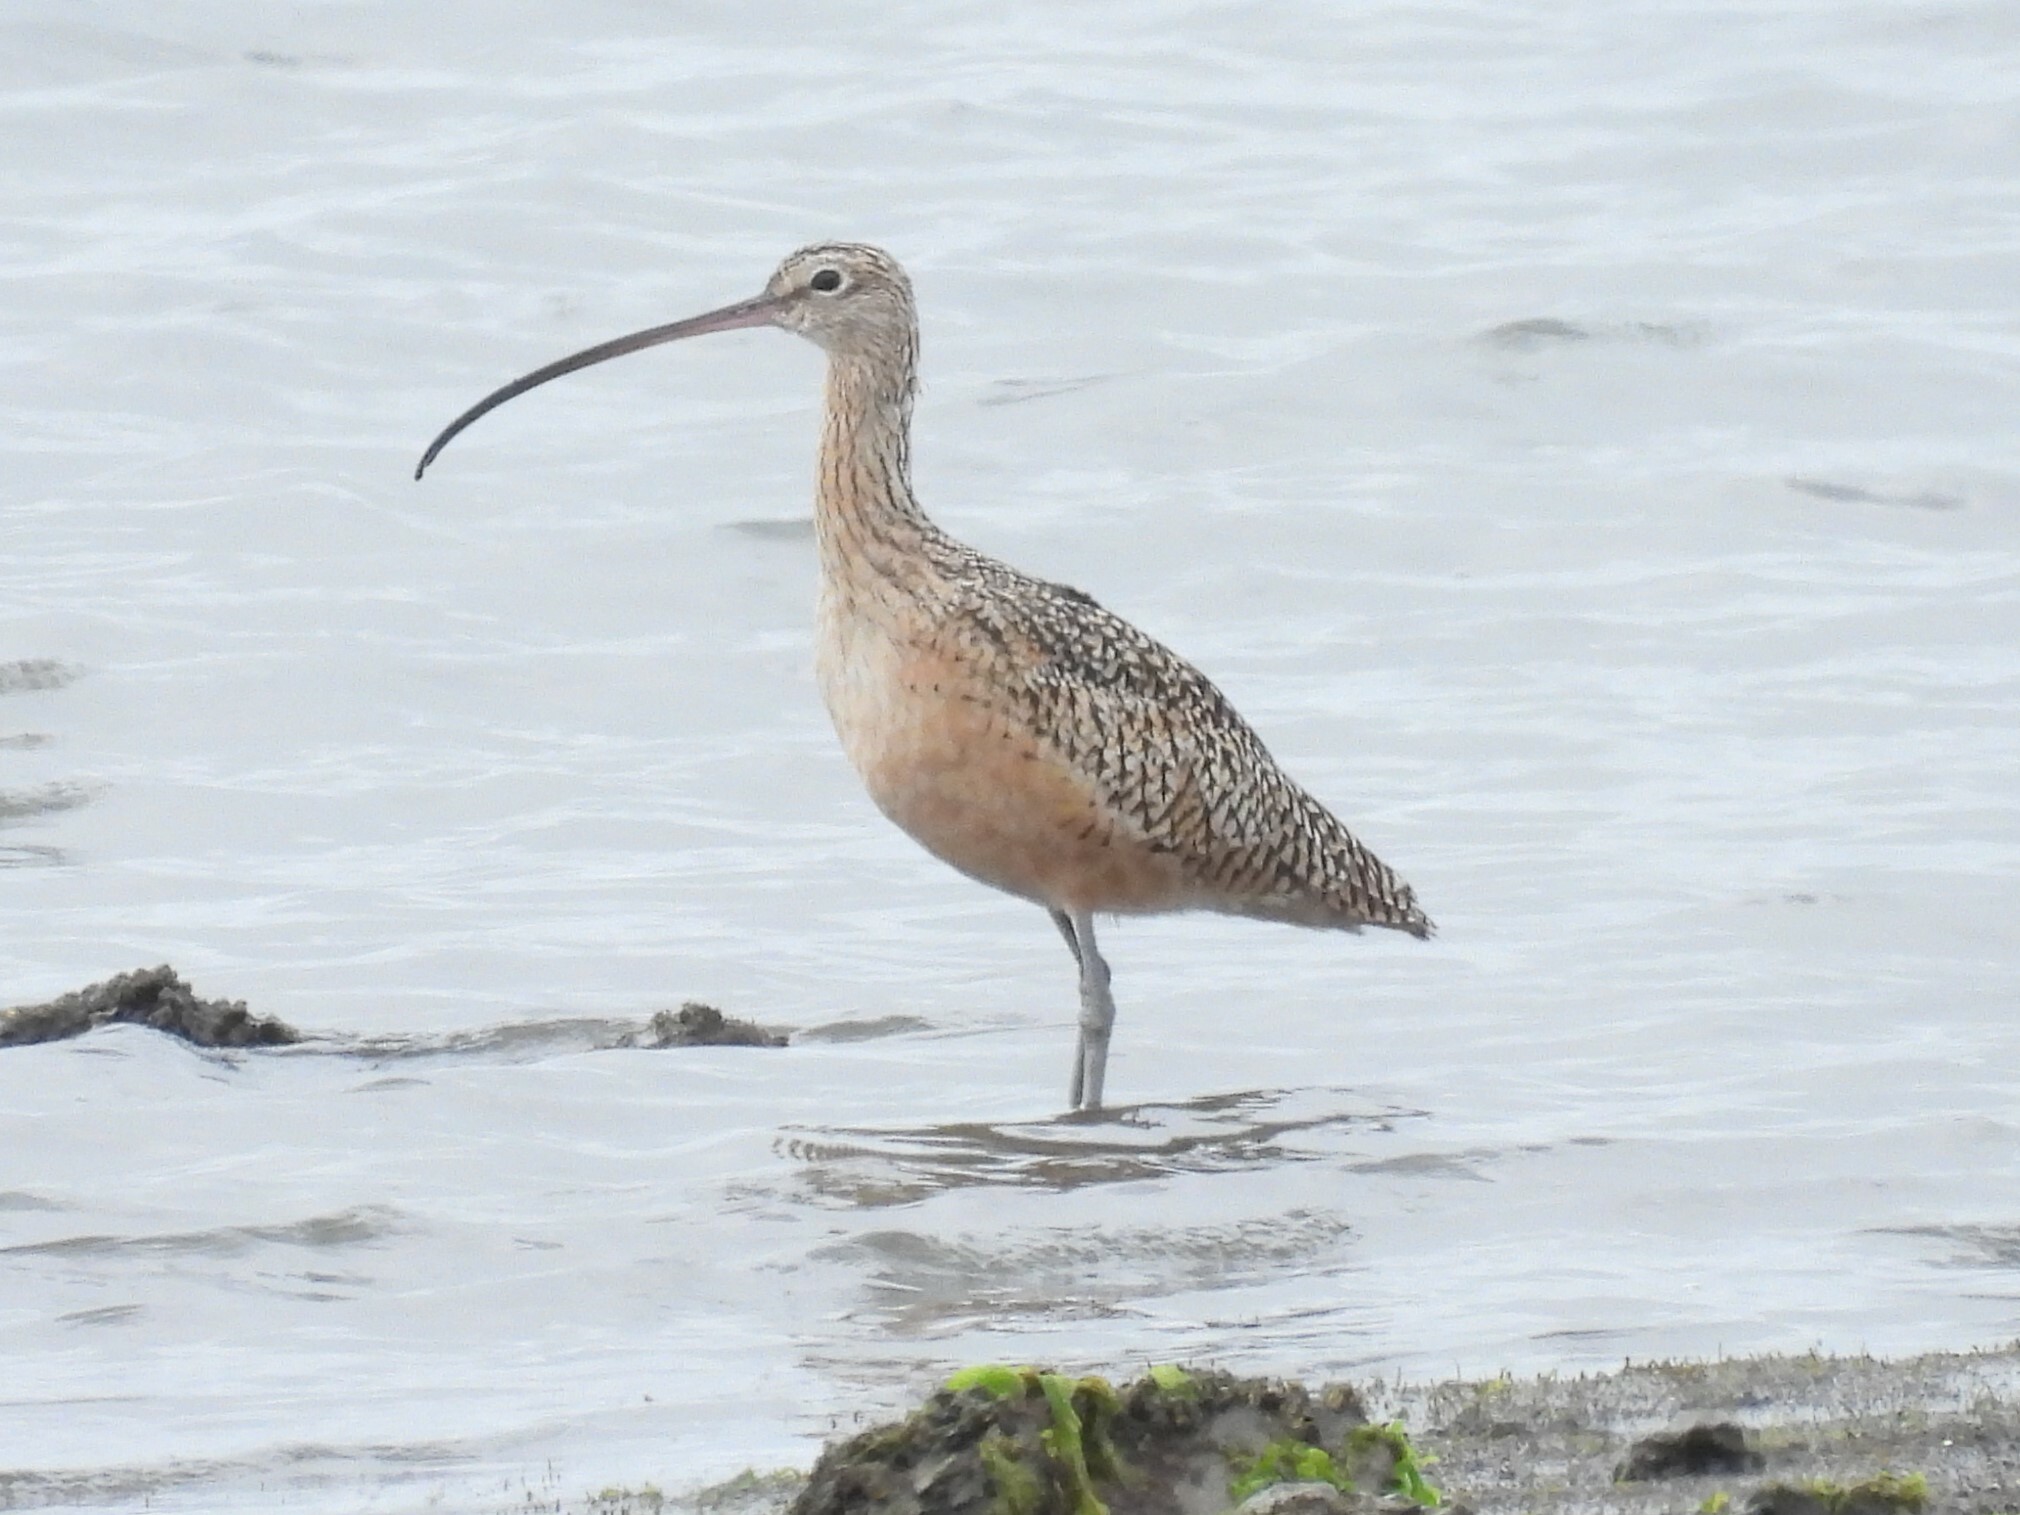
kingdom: Animalia
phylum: Chordata
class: Aves
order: Charadriiformes
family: Scolopacidae
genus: Numenius
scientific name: Numenius americanus
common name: Long-billed curlew
